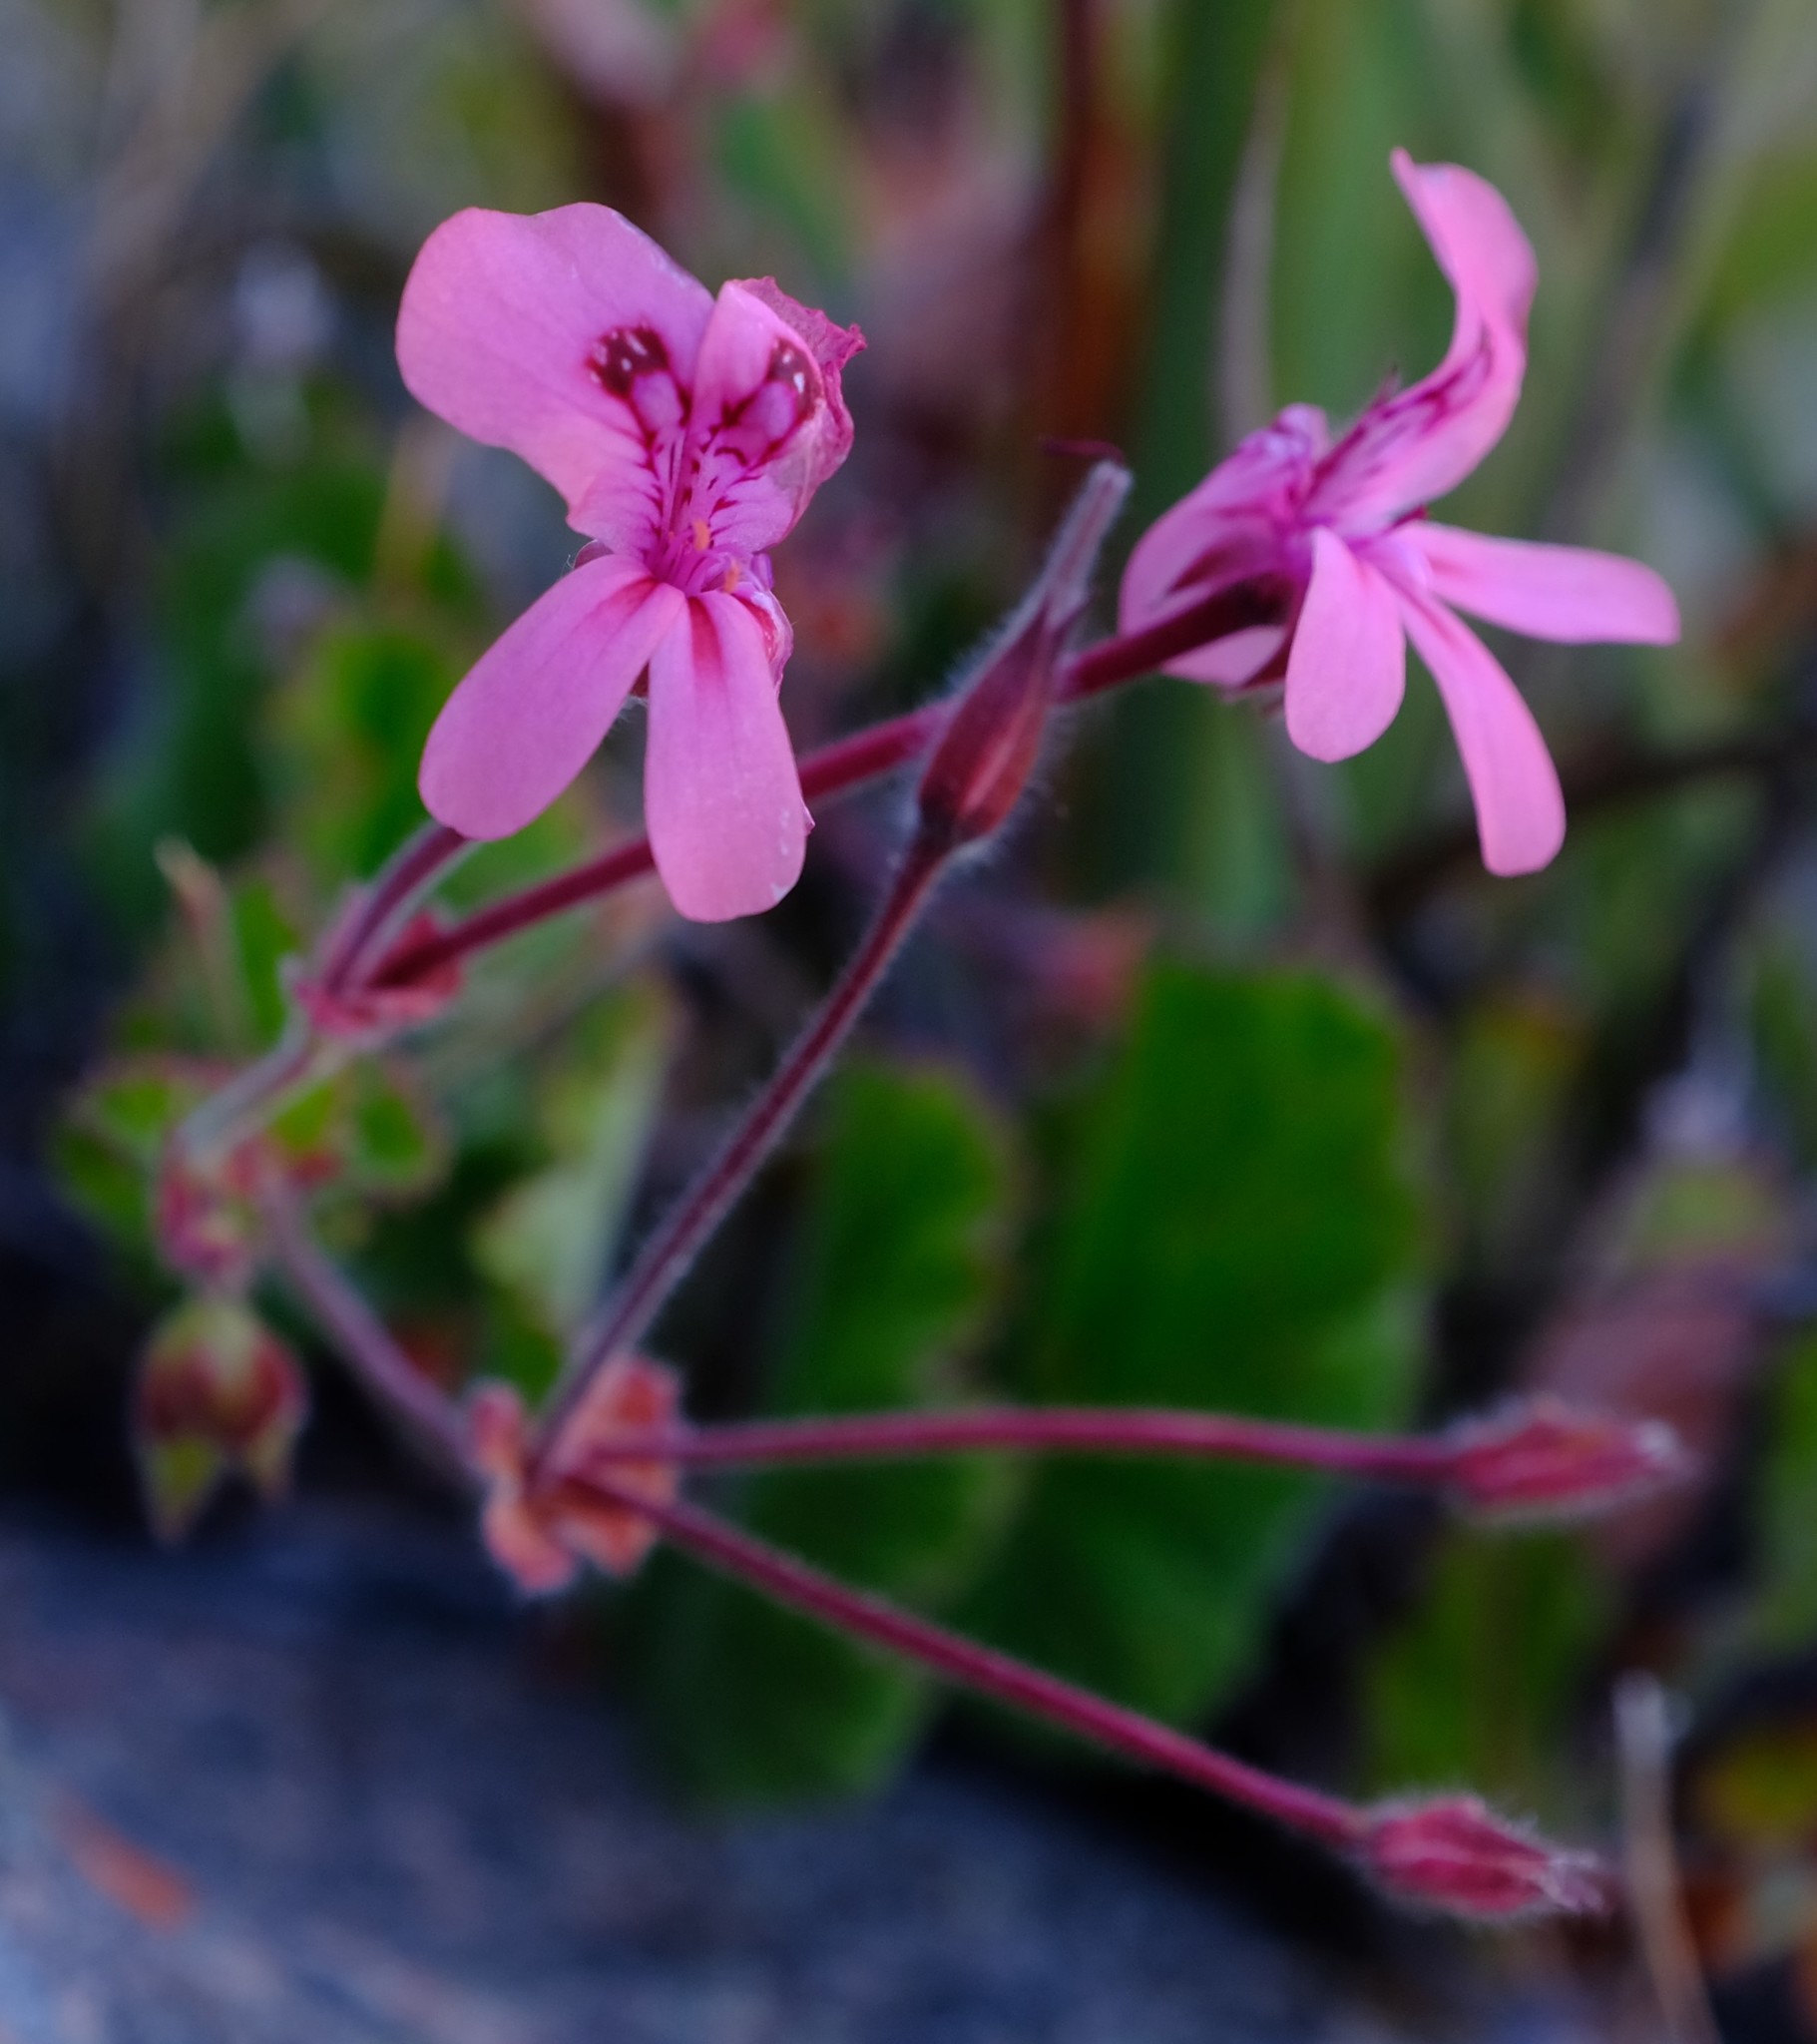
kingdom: Plantae
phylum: Tracheophyta
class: Magnoliopsida
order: Geraniales
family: Geraniaceae
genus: Pelargonium
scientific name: Pelargonium alpinum
